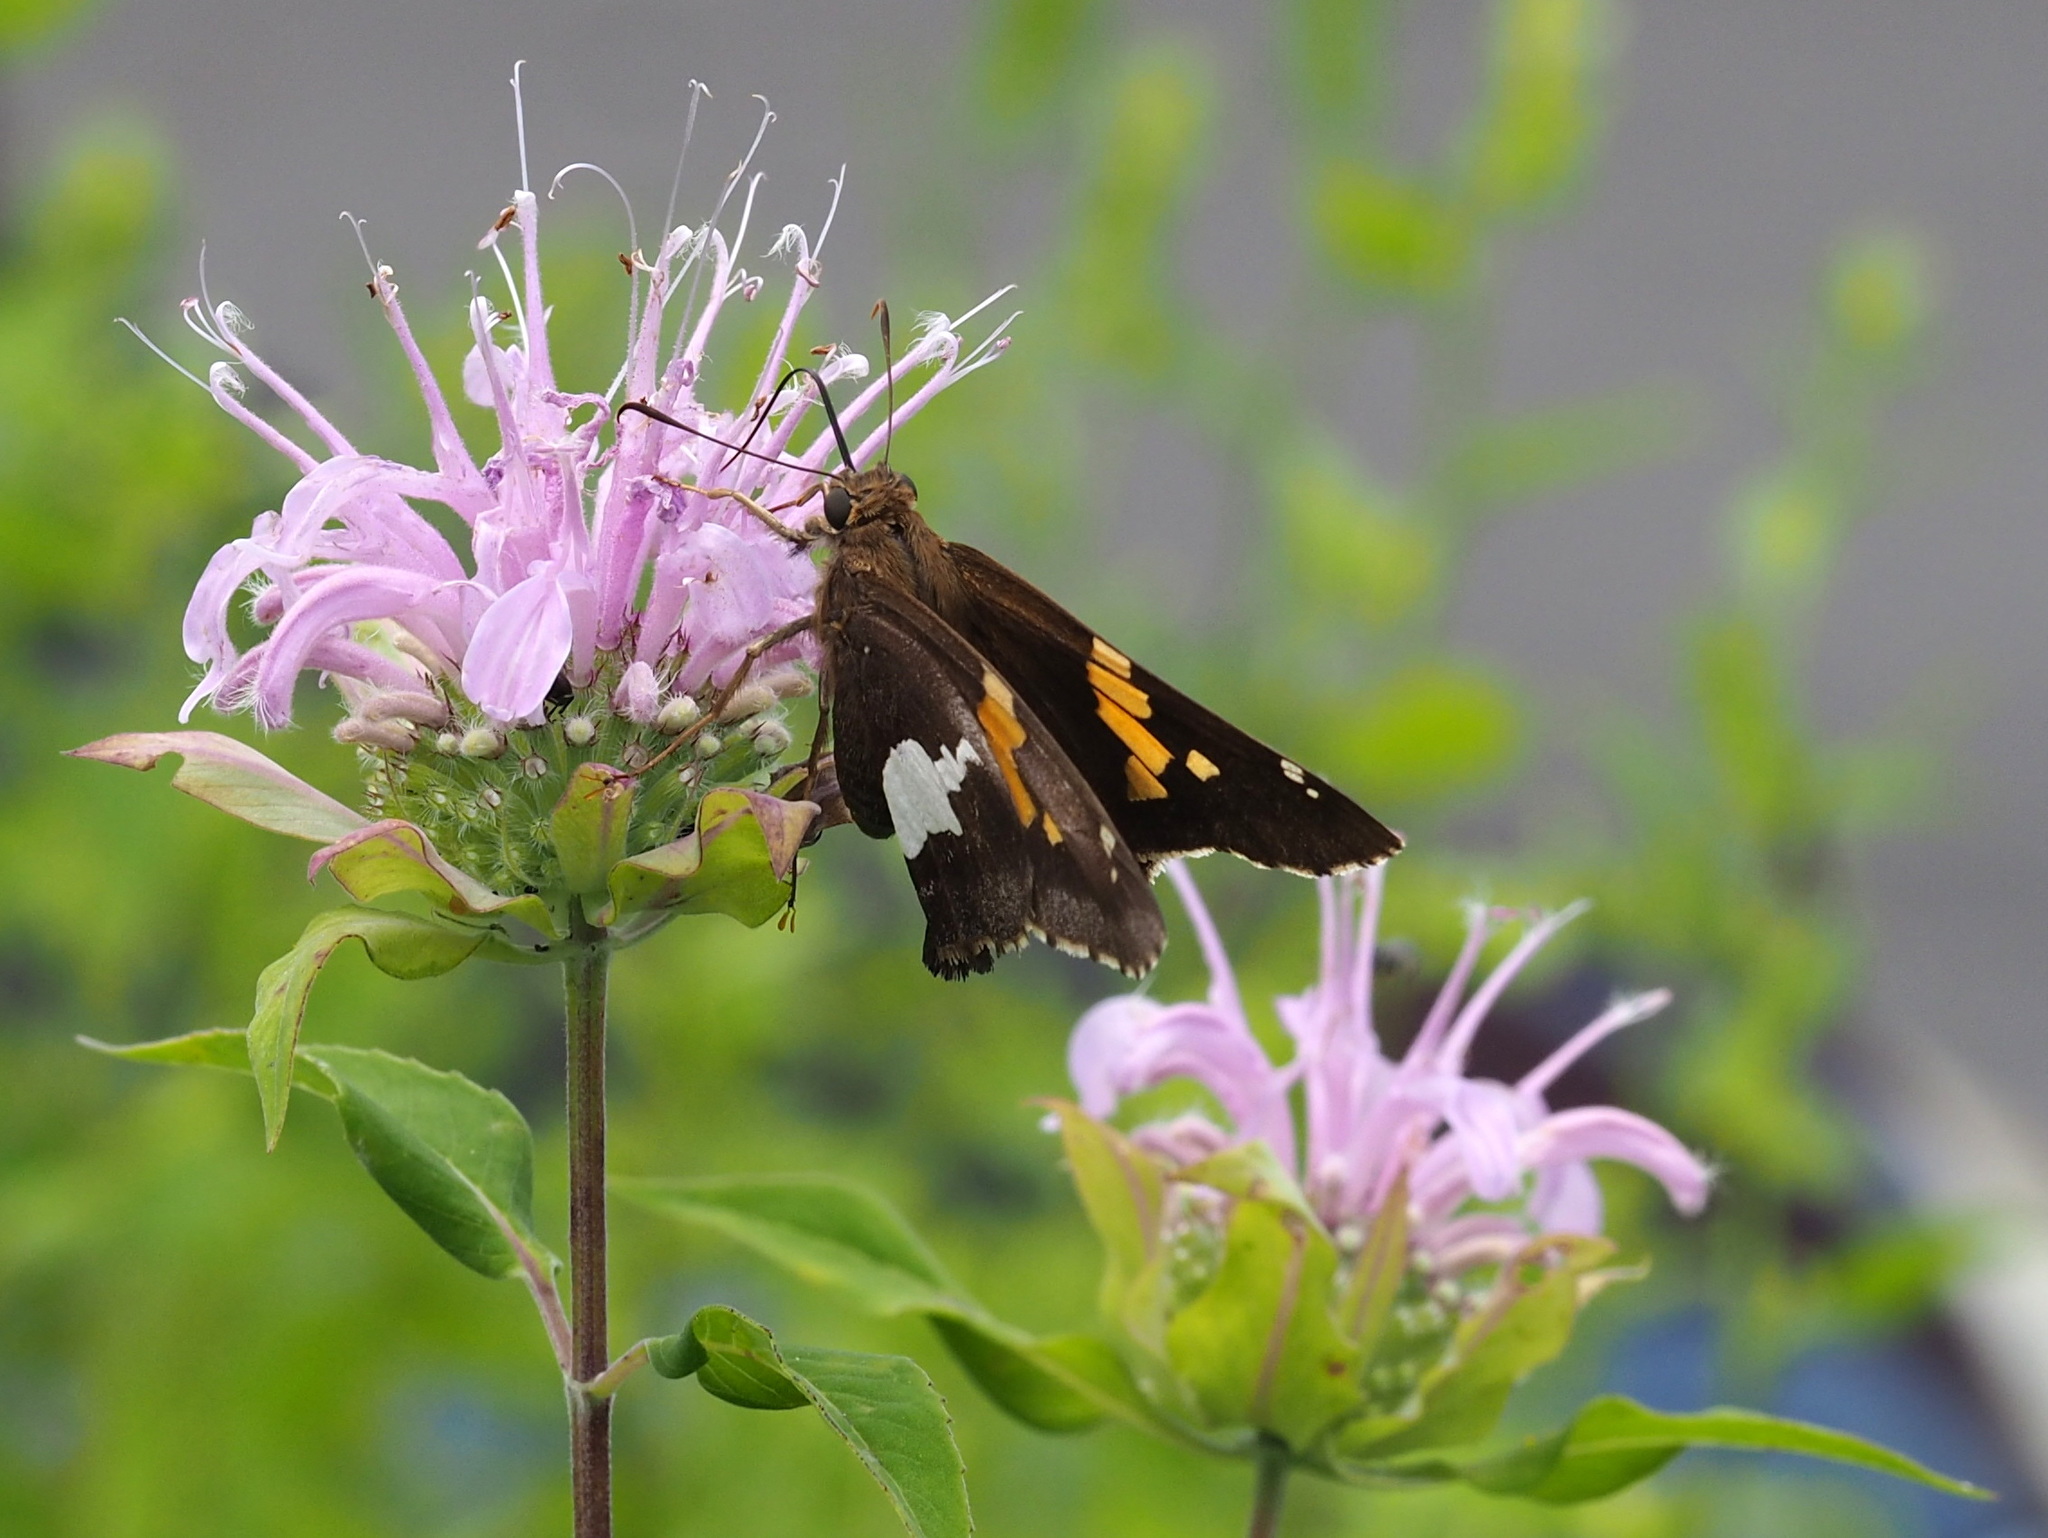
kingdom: Animalia
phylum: Arthropoda
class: Insecta
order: Lepidoptera
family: Hesperiidae
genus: Epargyreus
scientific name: Epargyreus clarus
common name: Silver-spotted skipper
